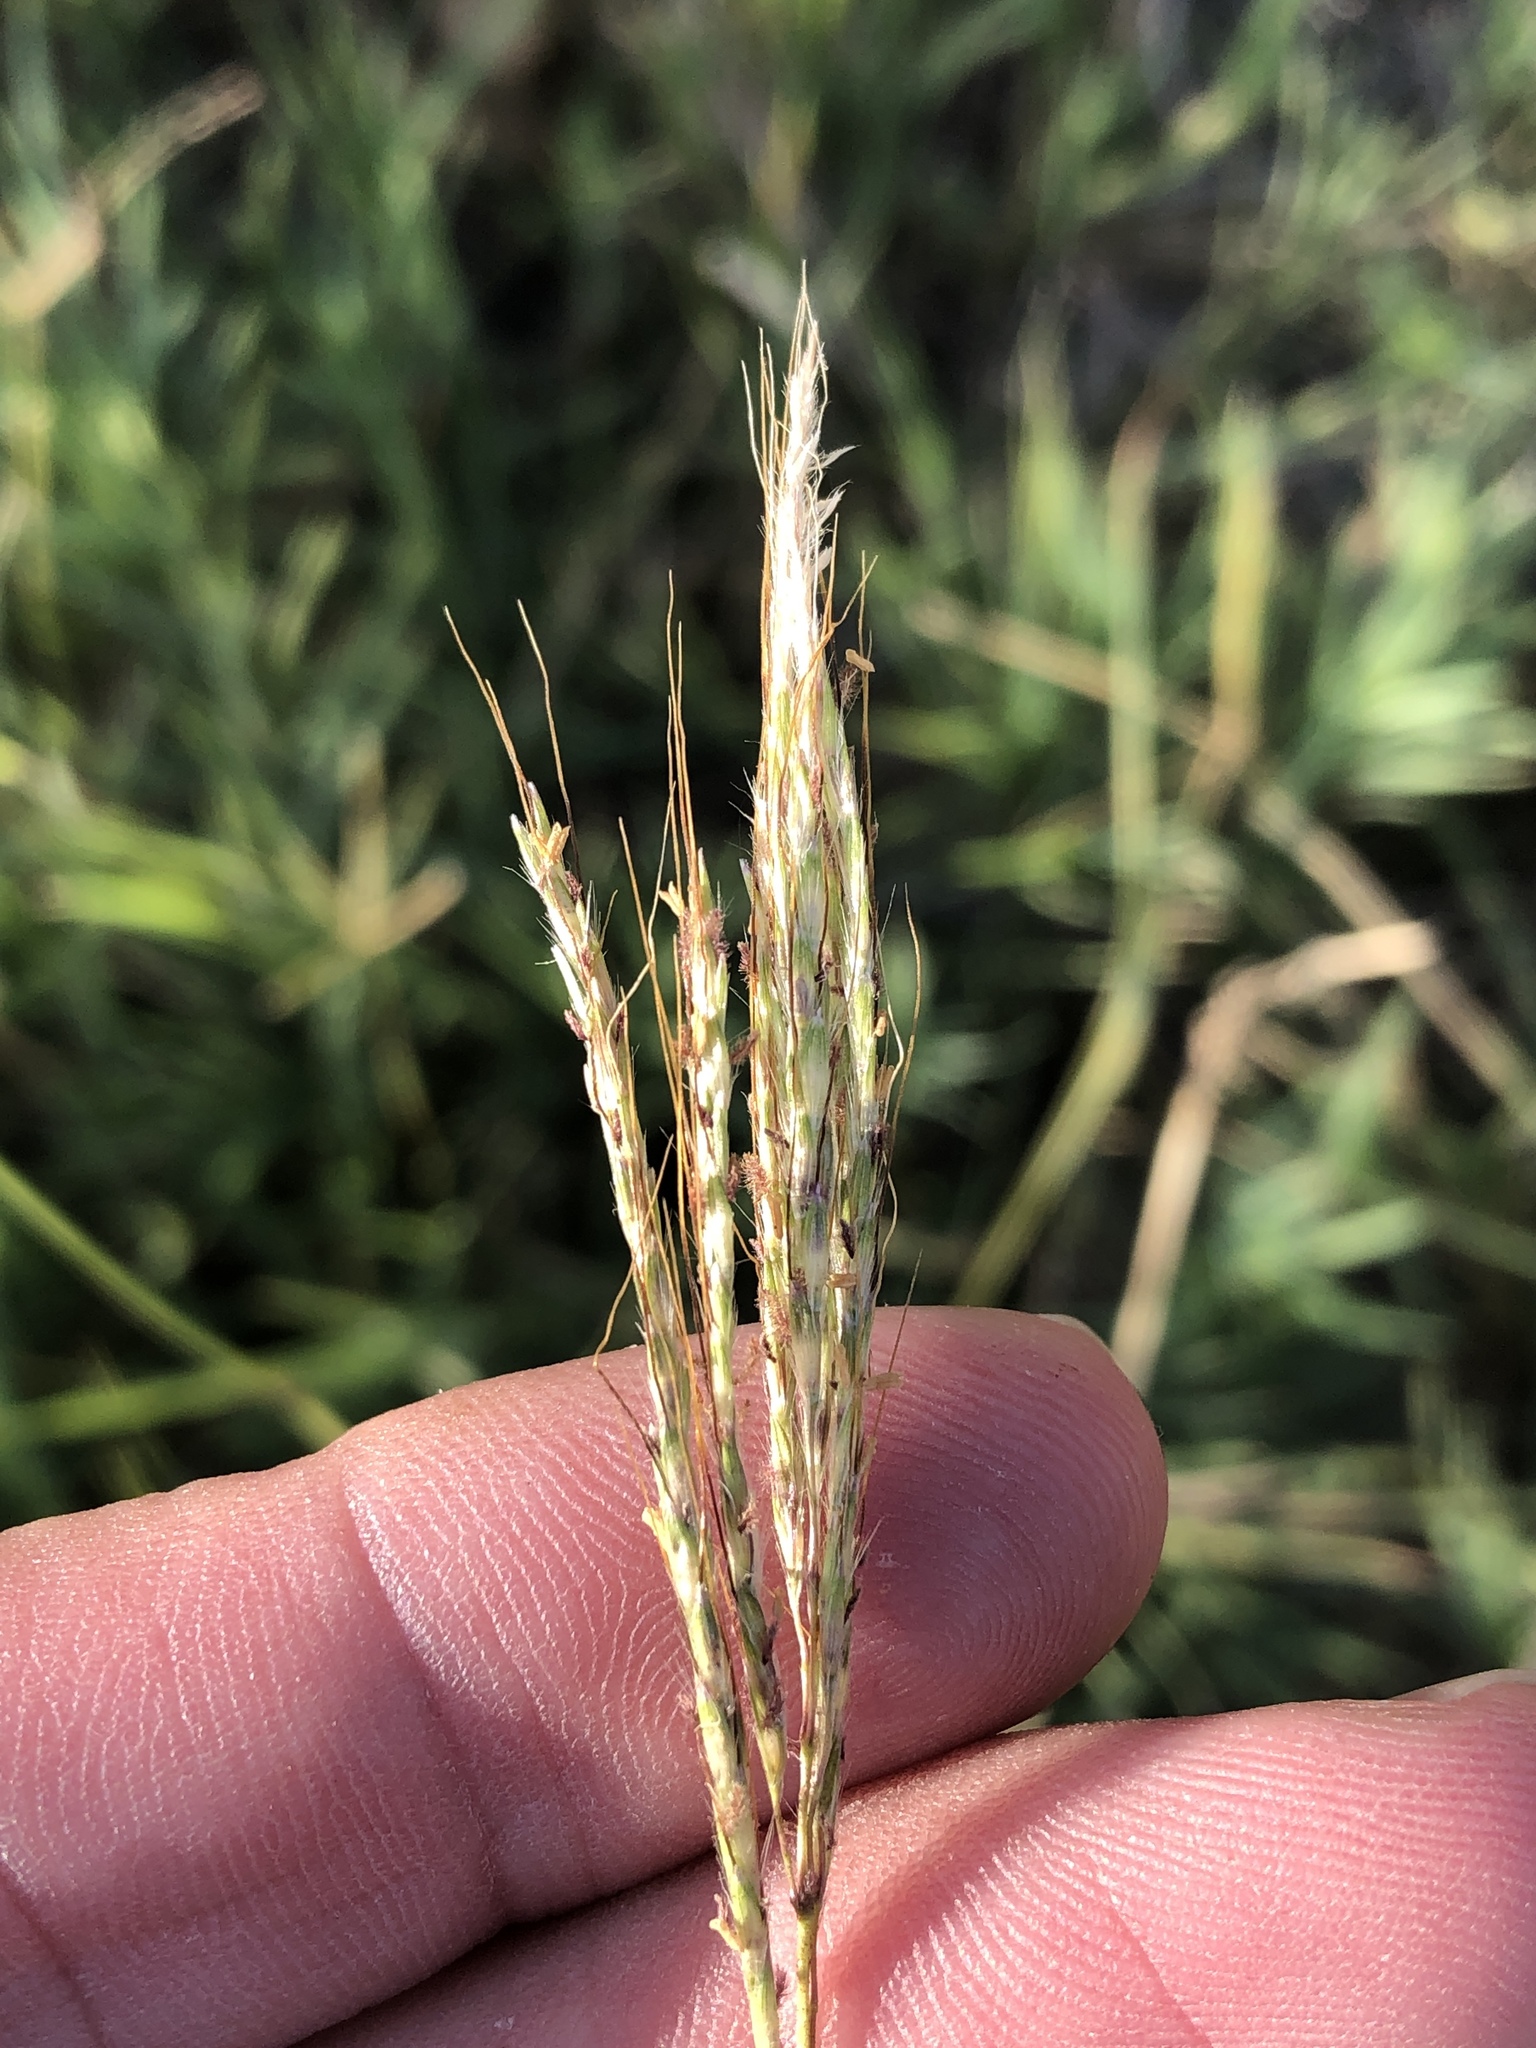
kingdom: Plantae
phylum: Tracheophyta
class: Liliopsida
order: Poales
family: Poaceae
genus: Bothriochloa
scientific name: Bothriochloa ischaemum
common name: Yellow bluestem
